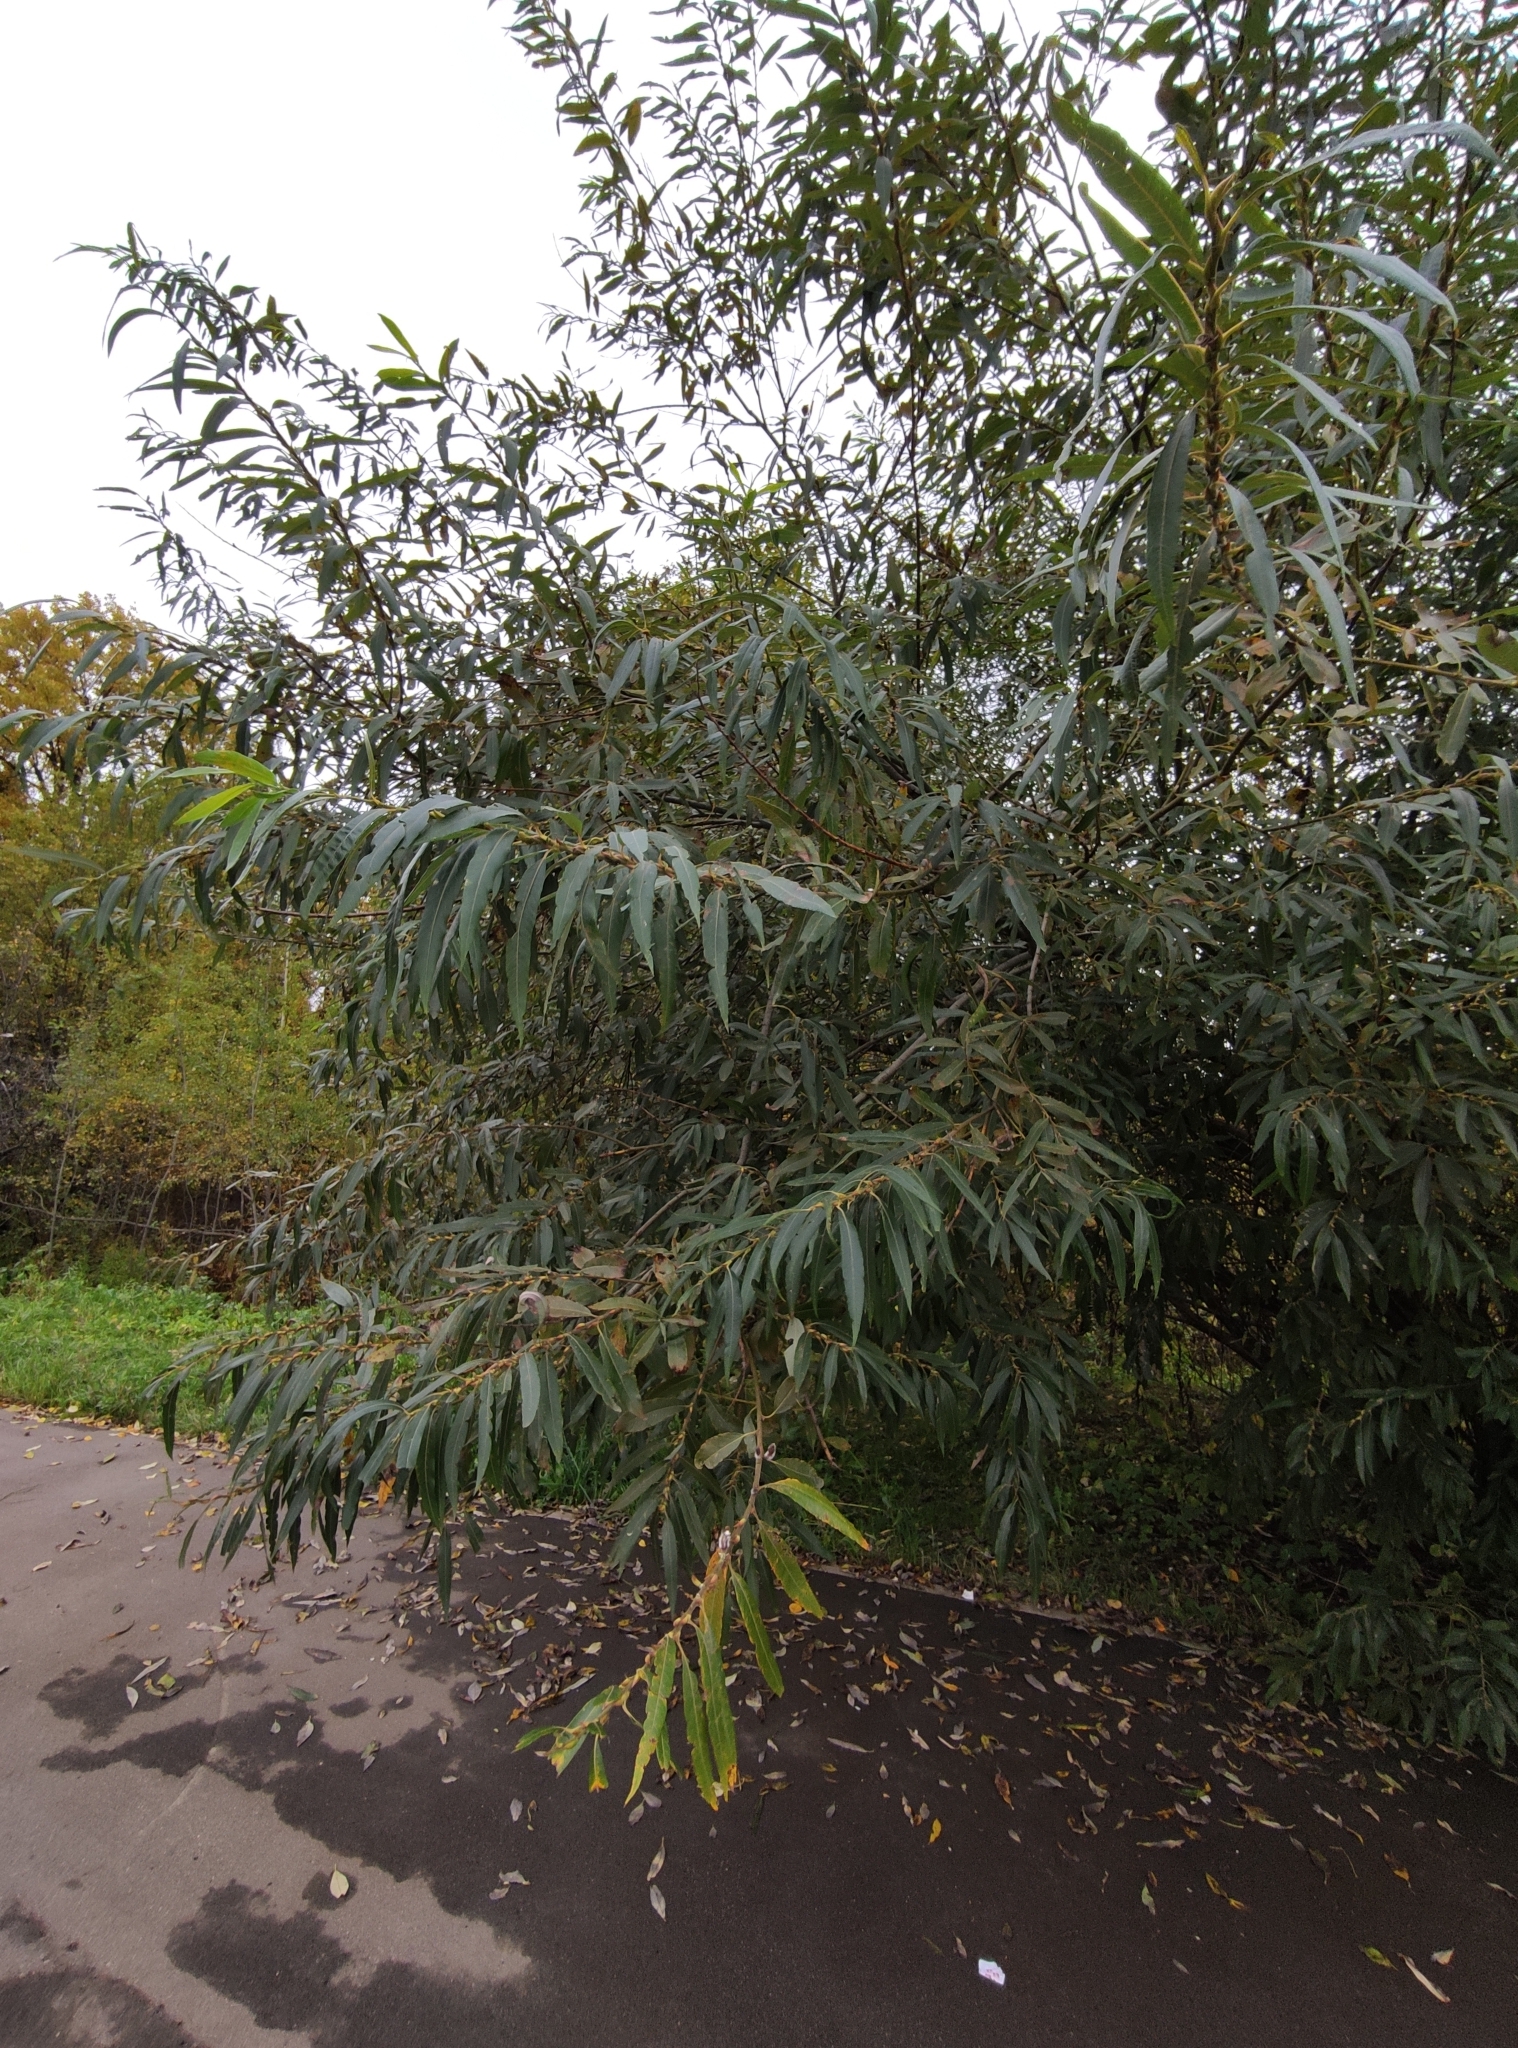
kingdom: Plantae
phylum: Tracheophyta
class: Magnoliopsida
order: Malpighiales
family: Salicaceae
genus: Salix
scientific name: Salix gmelinii
